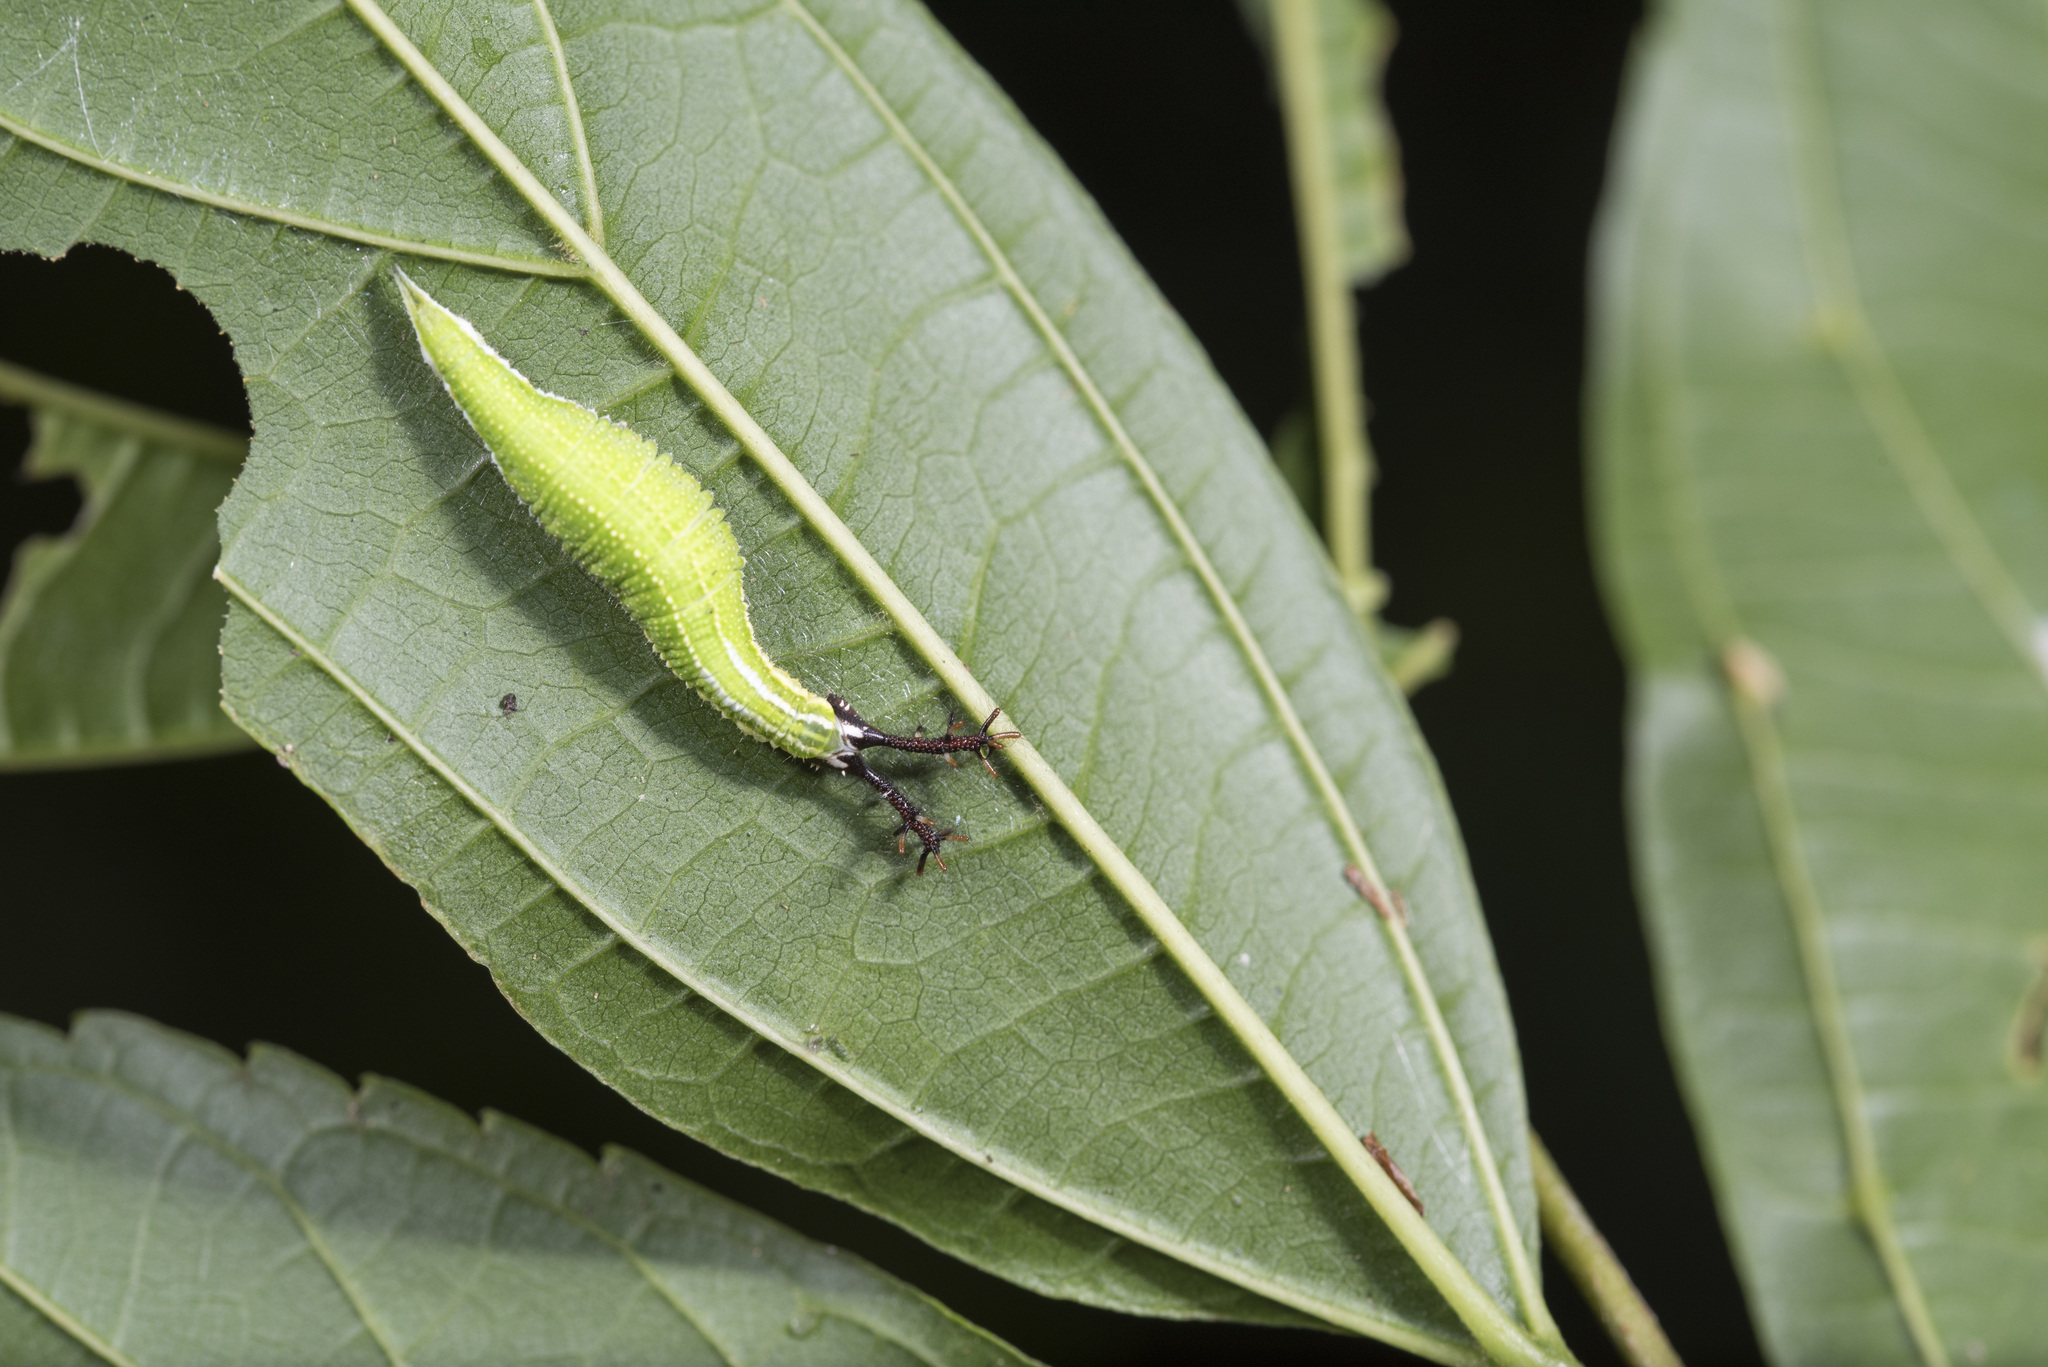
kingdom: Animalia
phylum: Arthropoda
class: Insecta
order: Lepidoptera
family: Nymphalidae
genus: Timelaea
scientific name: Timelaea albescens
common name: Beautiful leopard
